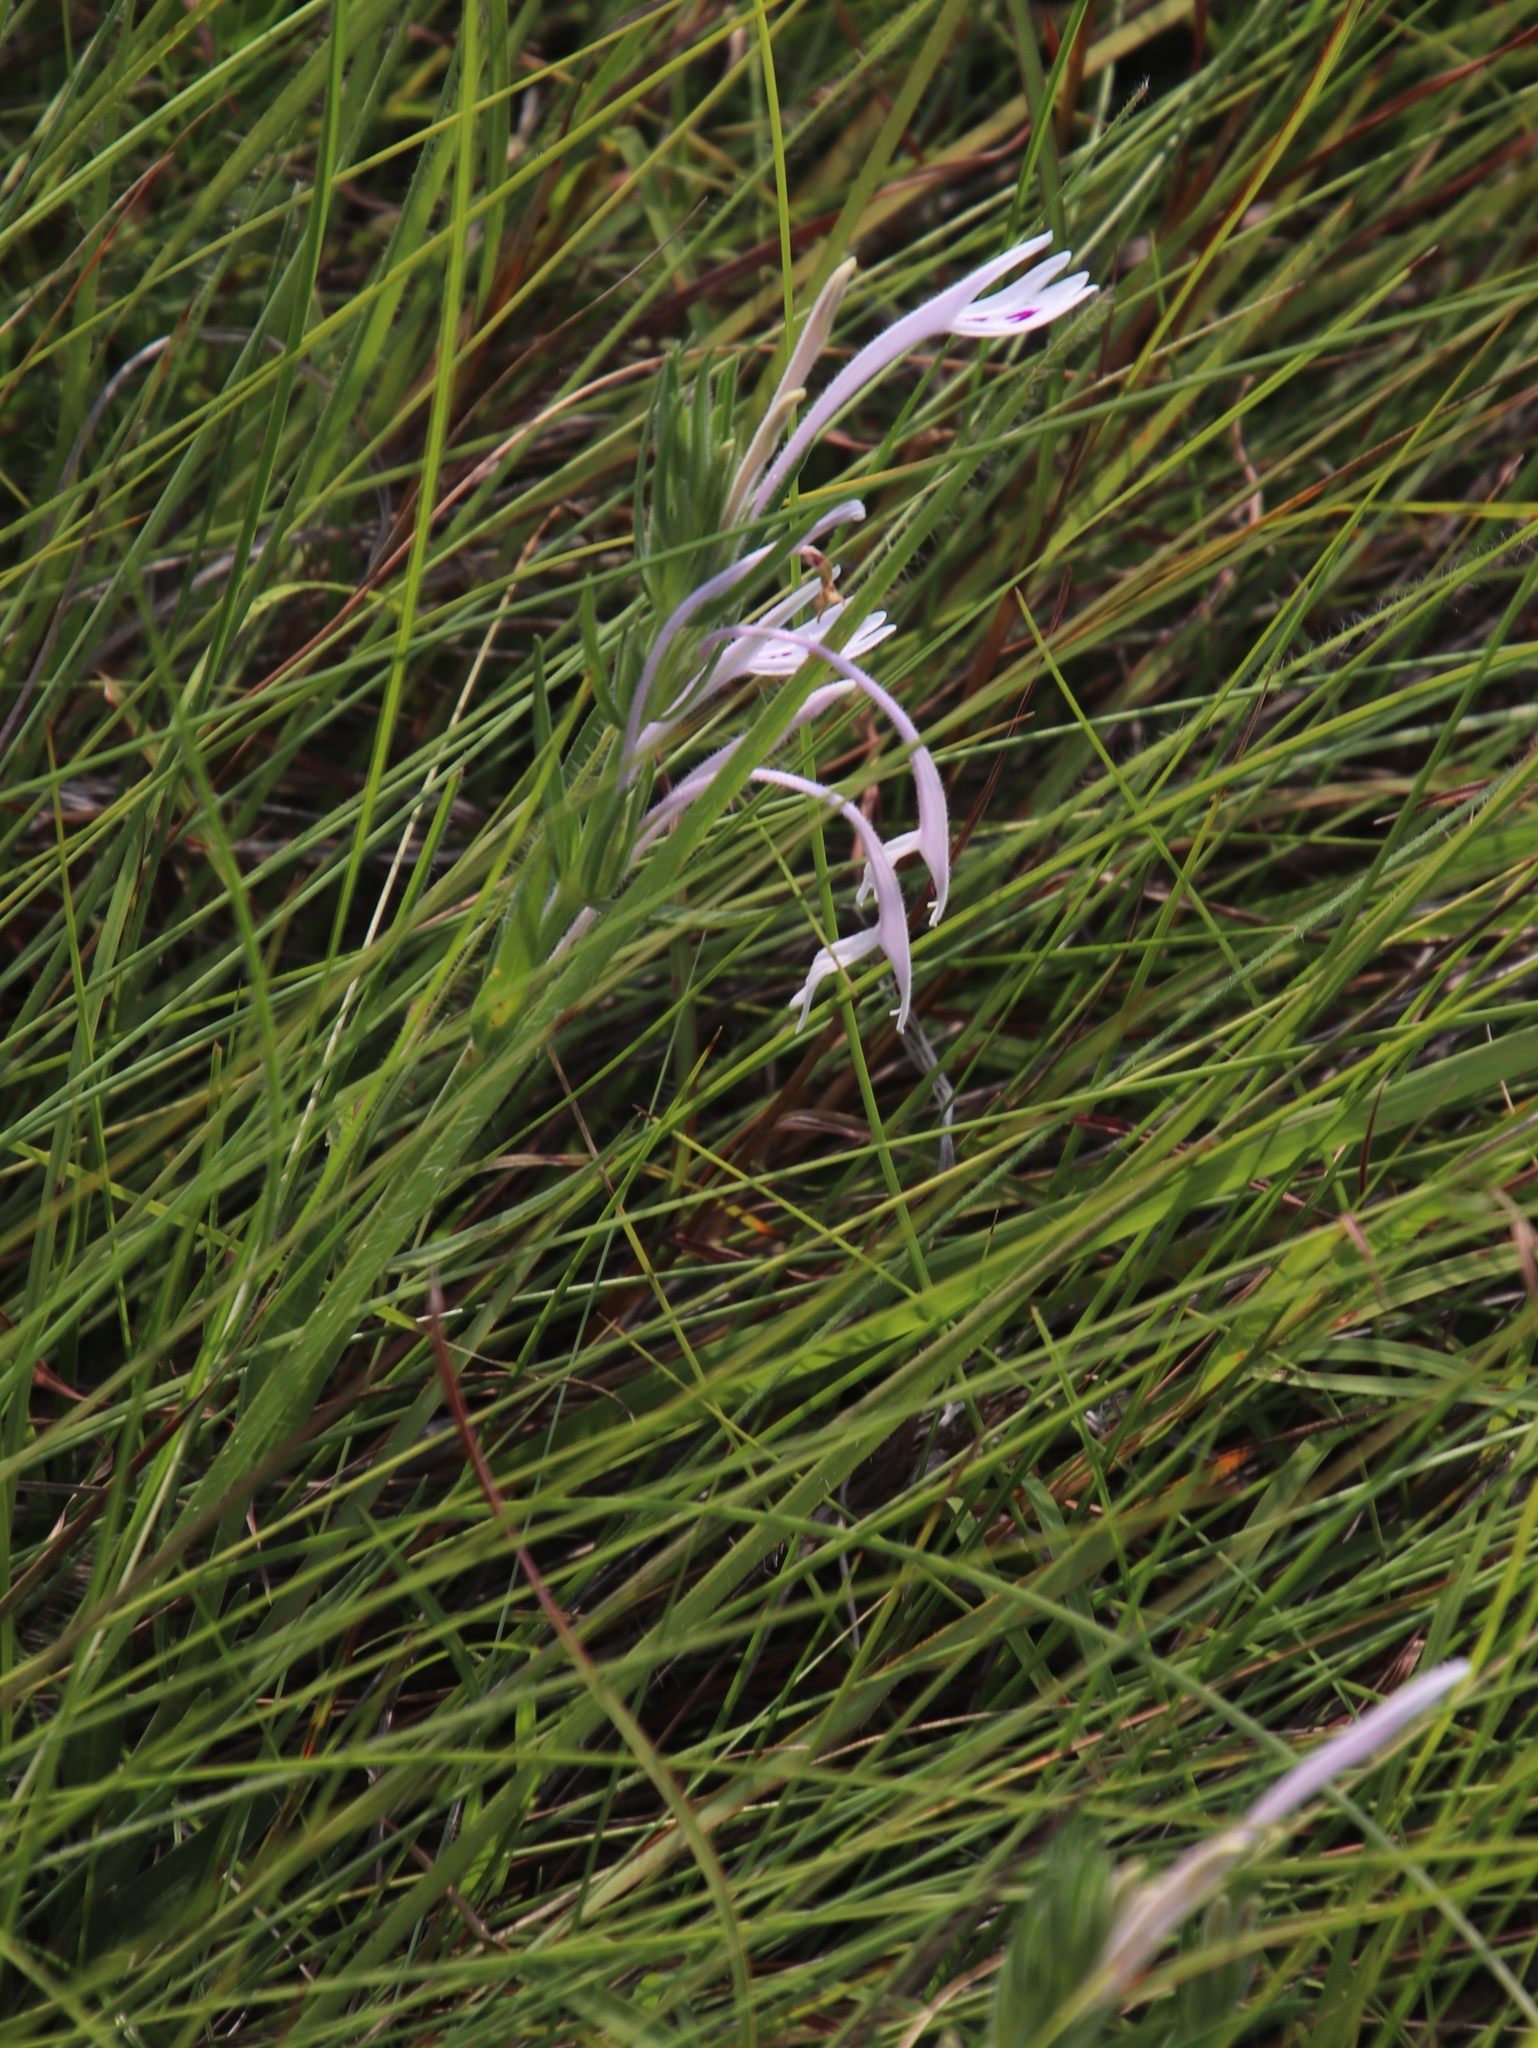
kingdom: Plantae
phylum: Tracheophyta
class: Magnoliopsida
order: Lamiales
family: Acanthaceae
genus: Justicia
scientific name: Justicia linifolia
